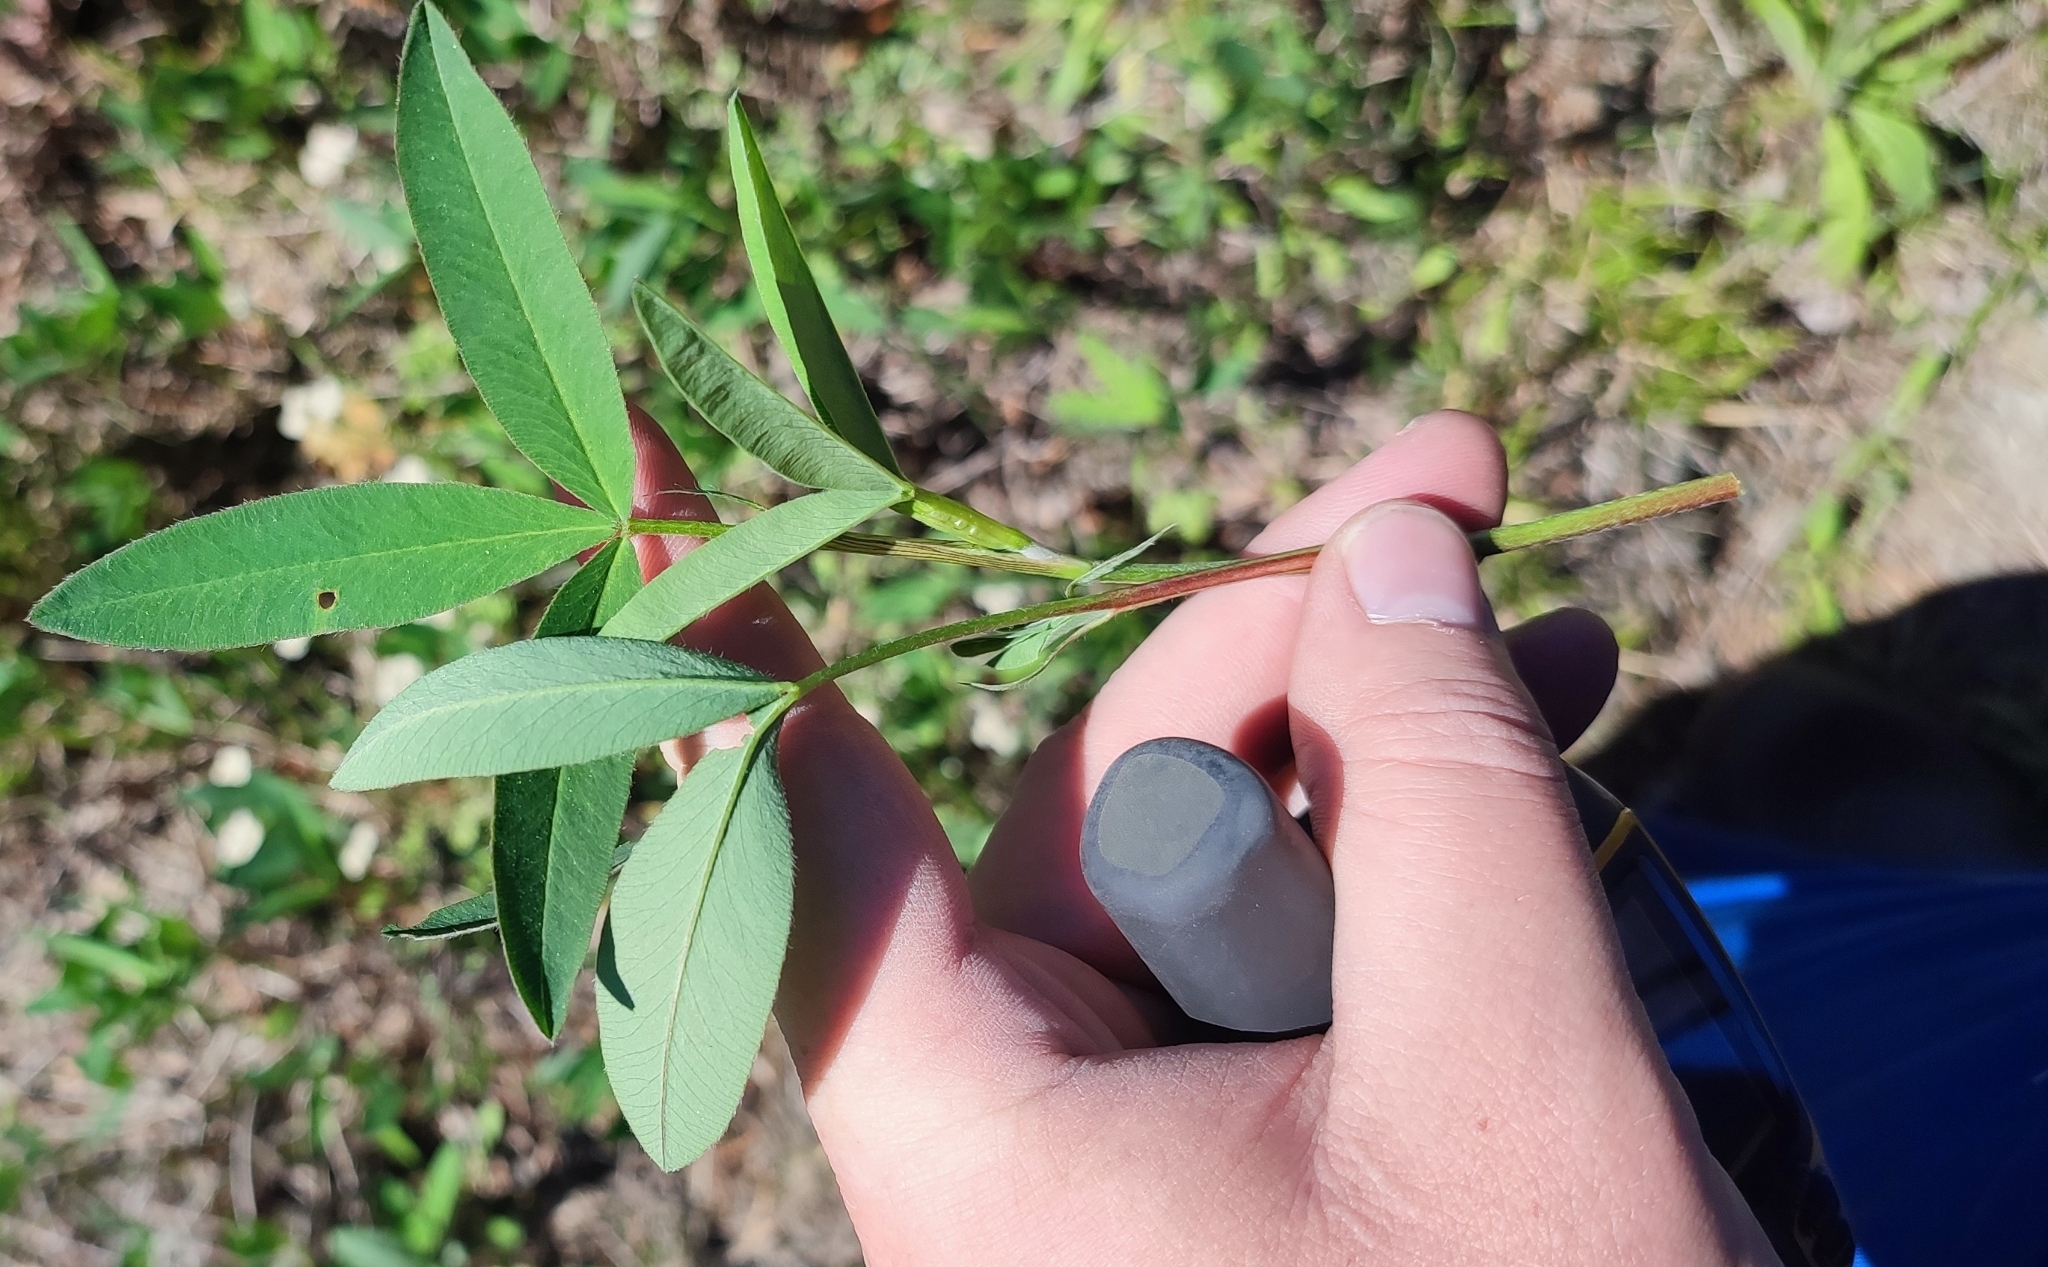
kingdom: Plantae
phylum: Tracheophyta
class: Magnoliopsida
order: Fabales
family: Fabaceae
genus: Trifolium
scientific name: Trifolium medium
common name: Zigzag clover
